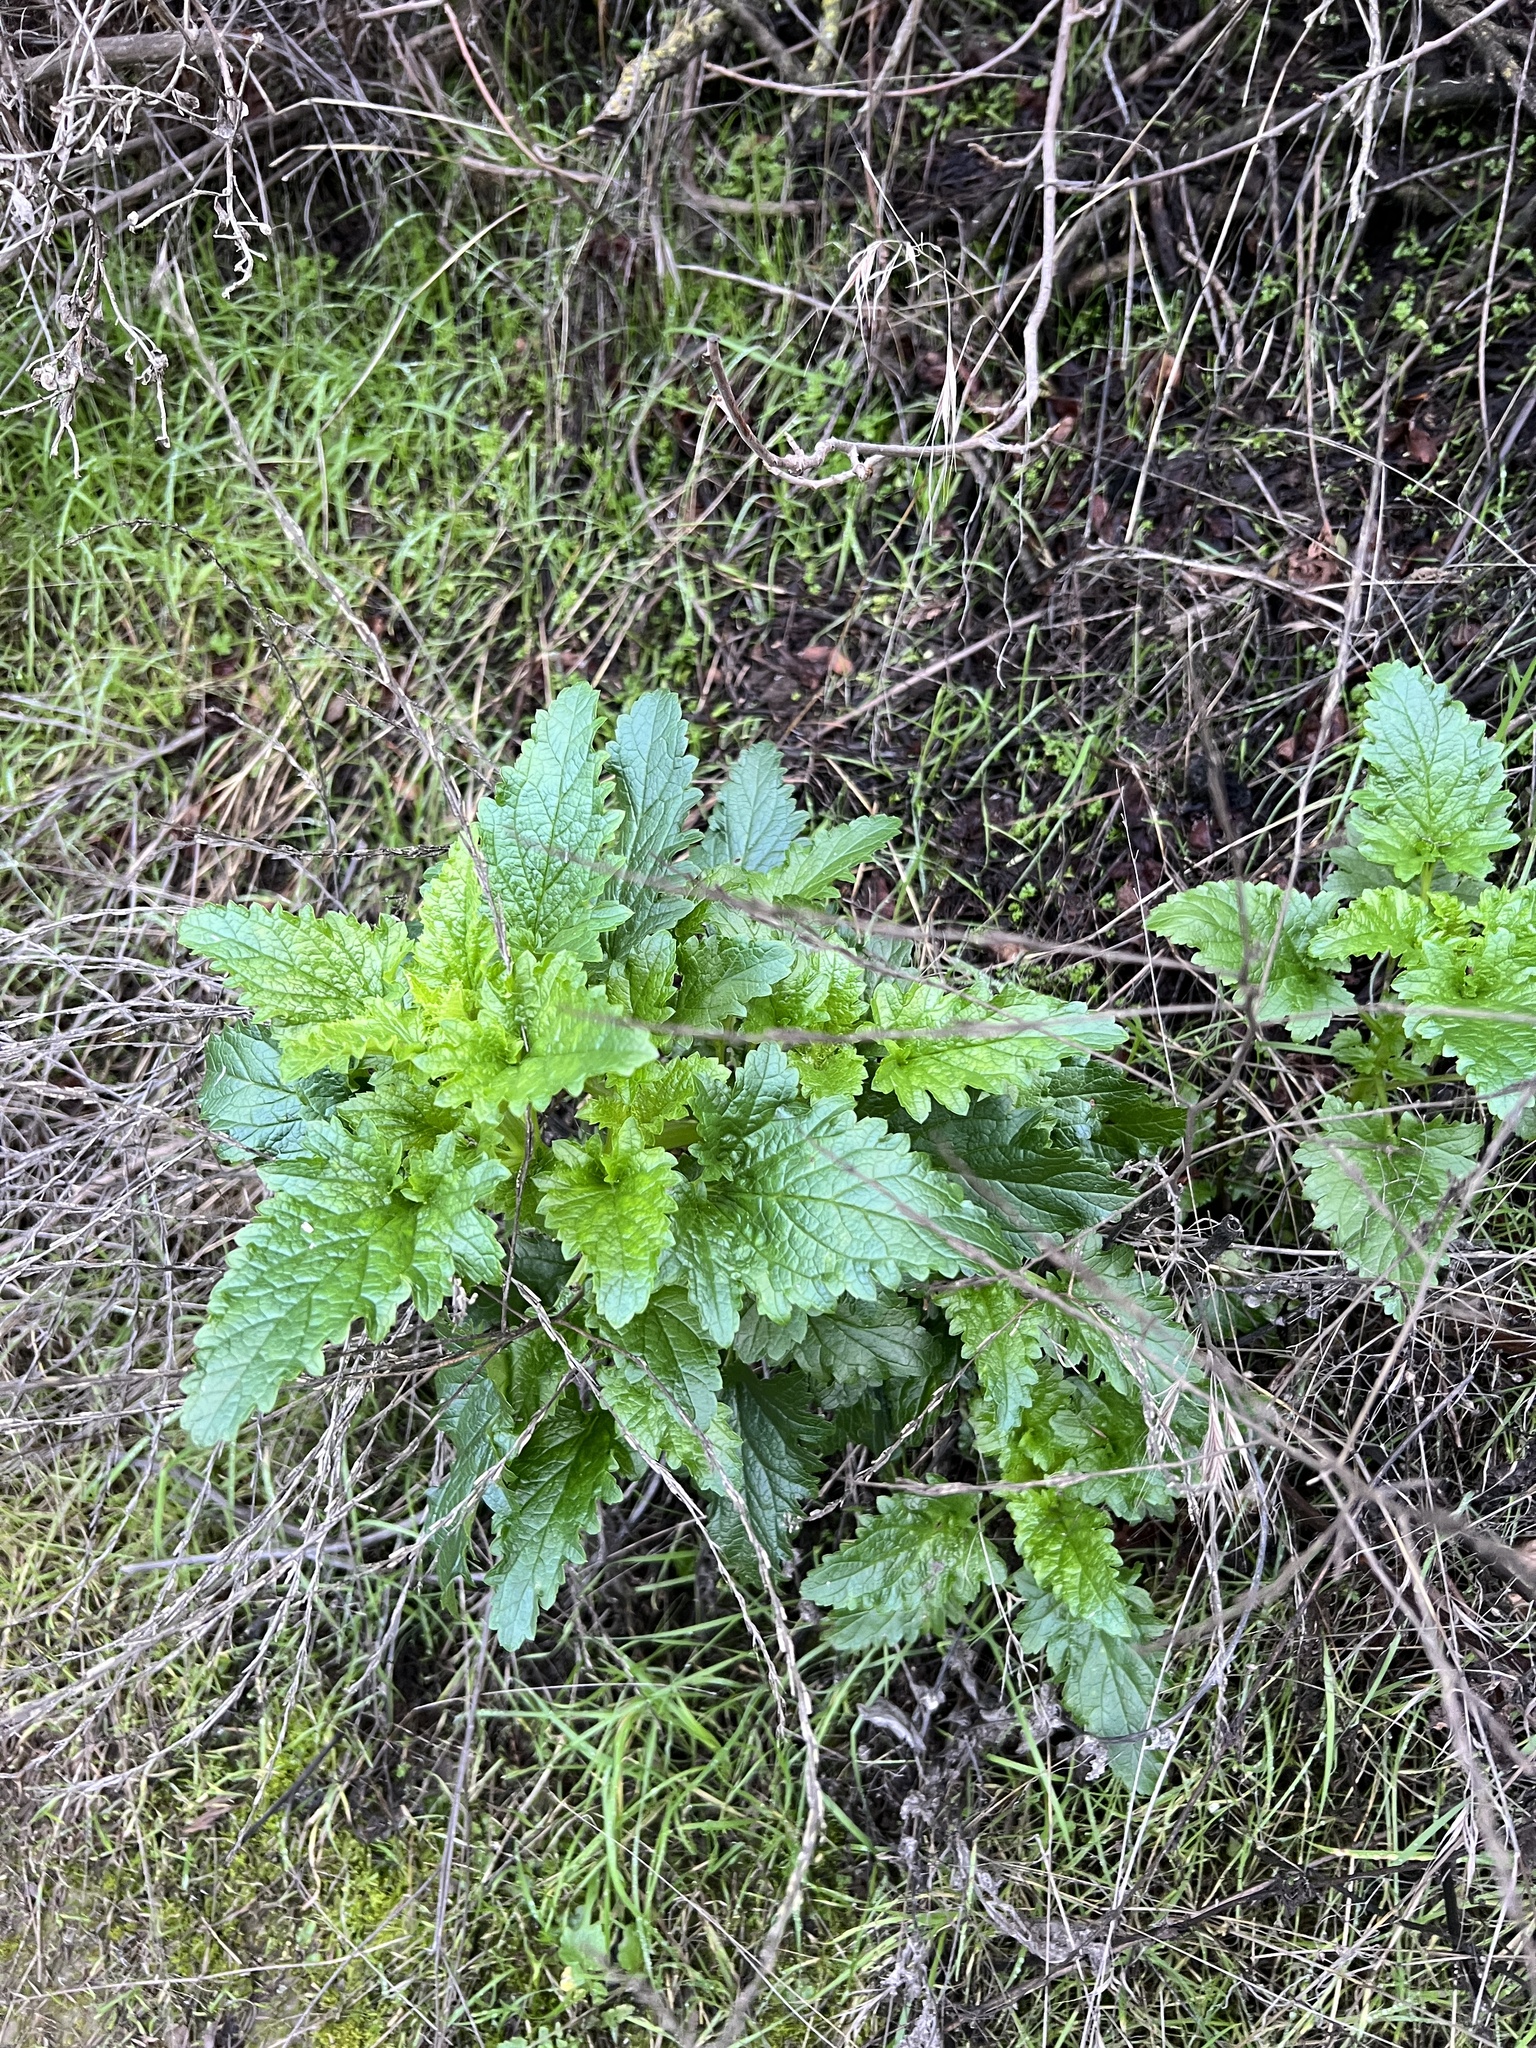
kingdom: Plantae
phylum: Tracheophyta
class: Magnoliopsida
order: Lamiales
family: Scrophulariaceae
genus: Scrophularia
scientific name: Scrophularia californica
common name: California figwort
